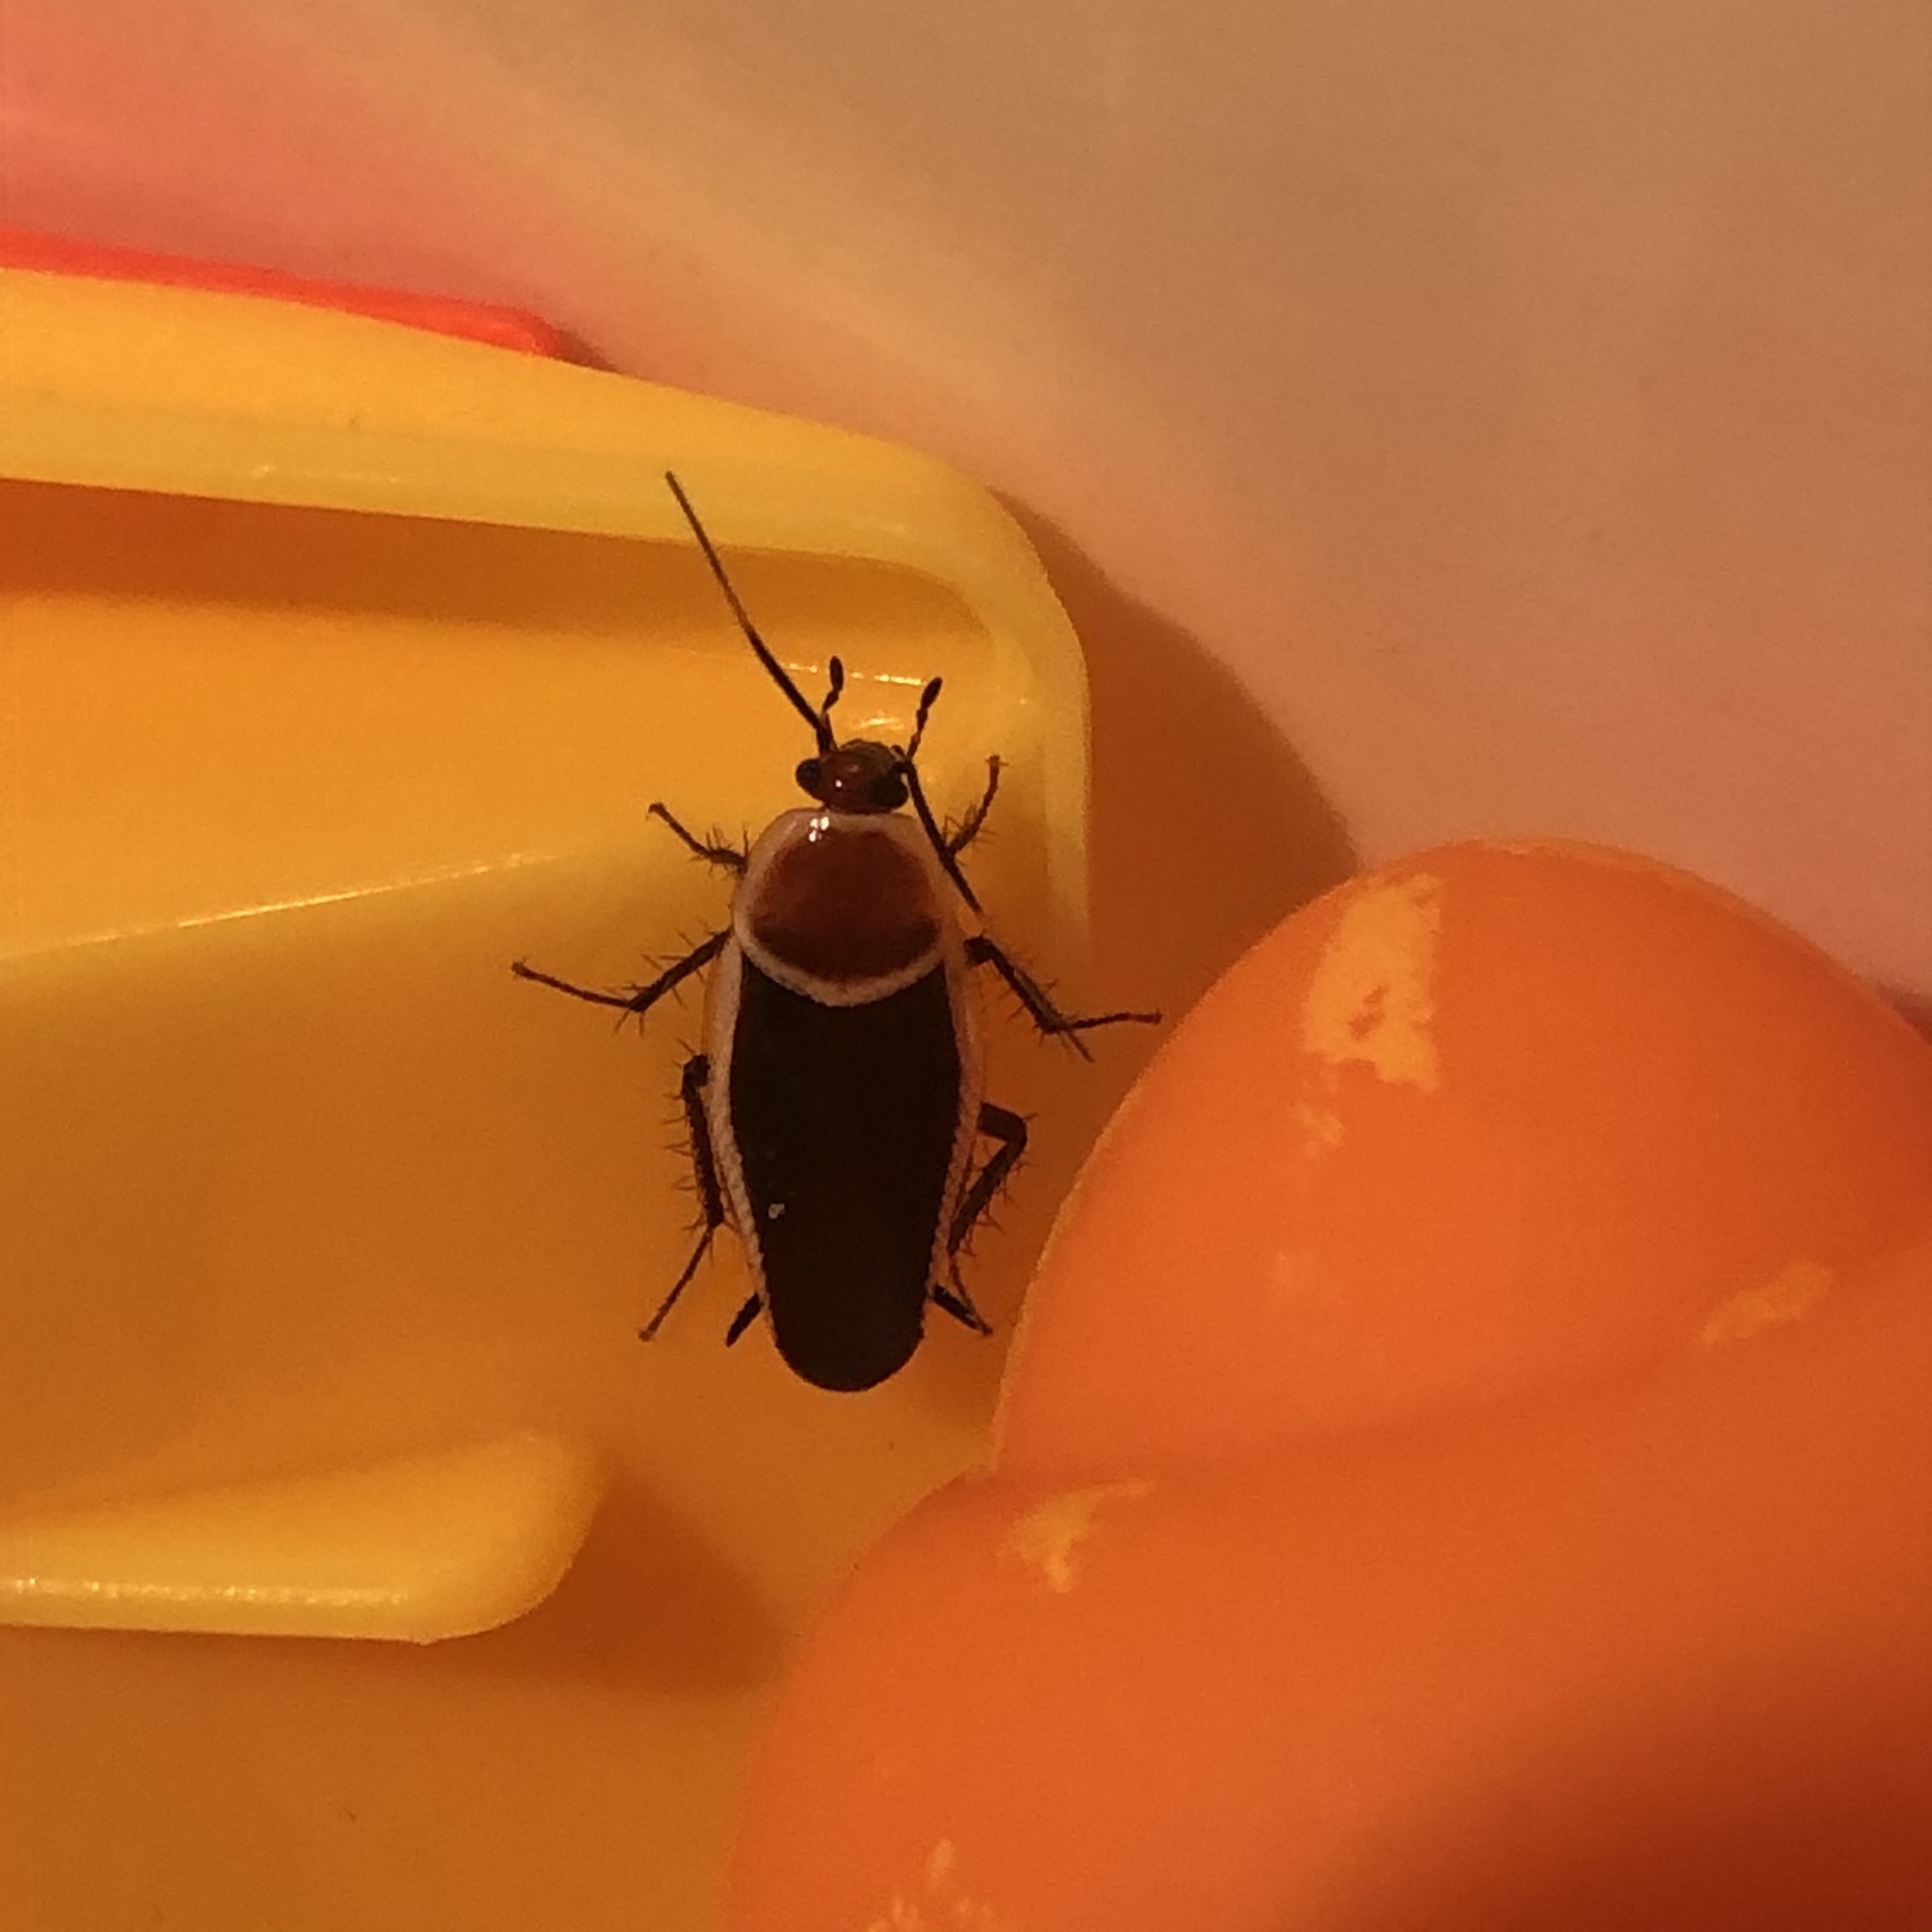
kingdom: Animalia
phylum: Arthropoda
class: Insecta
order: Blattodea
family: Ectobiidae
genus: Pseudomops
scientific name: Pseudomops septentrionalis
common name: Pale-bordered field cockroach
